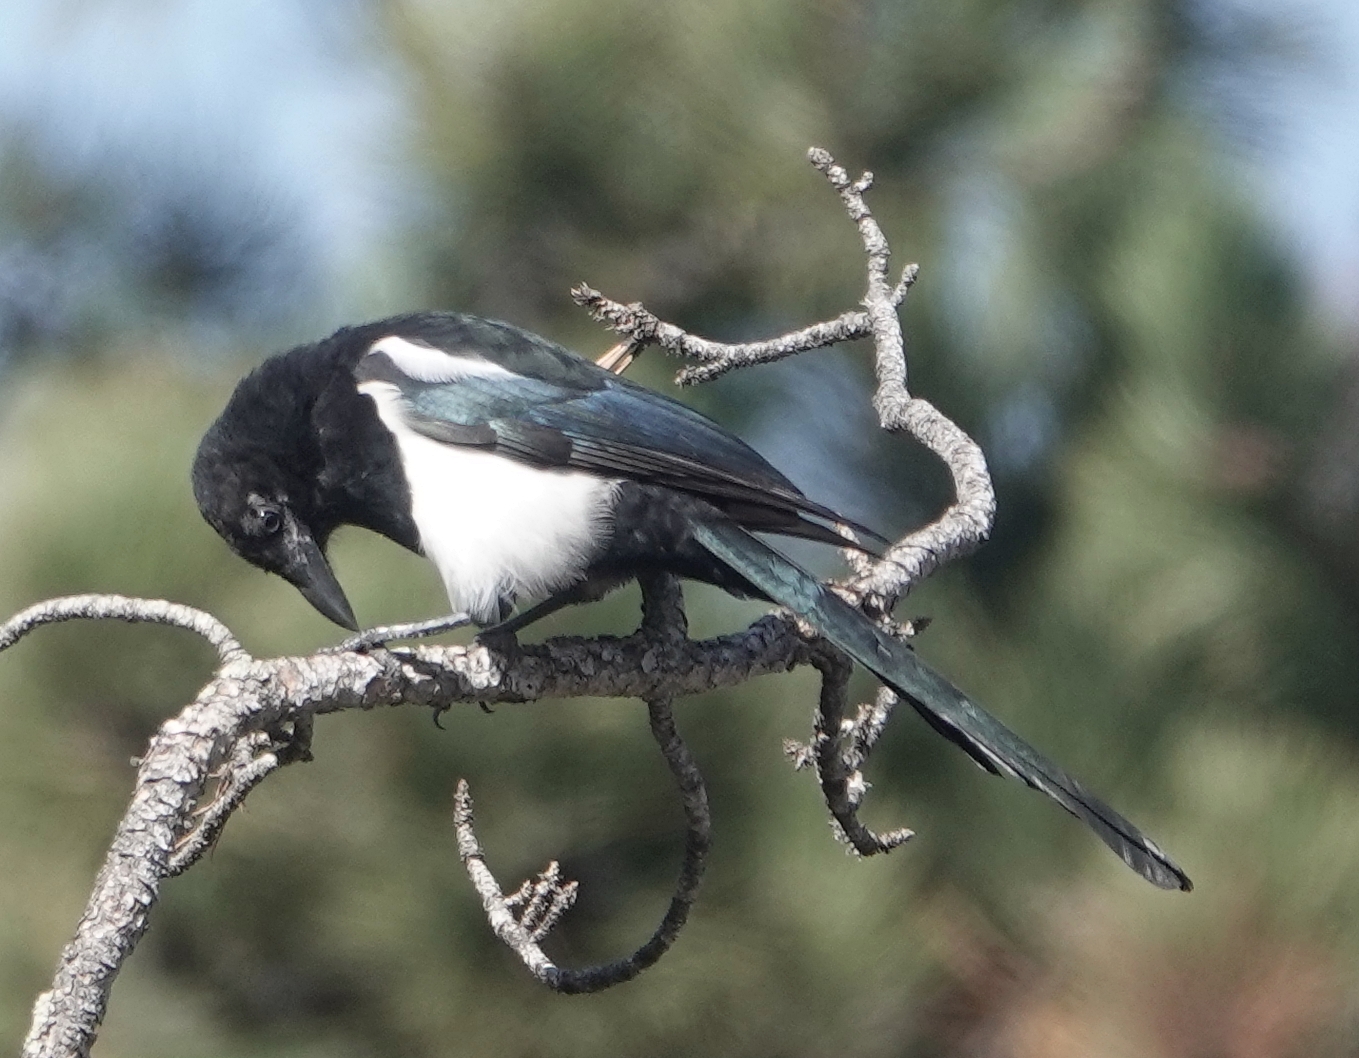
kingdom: Animalia
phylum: Chordata
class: Aves
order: Passeriformes
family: Corvidae
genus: Pica
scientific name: Pica hudsonia
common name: Black-billed magpie
